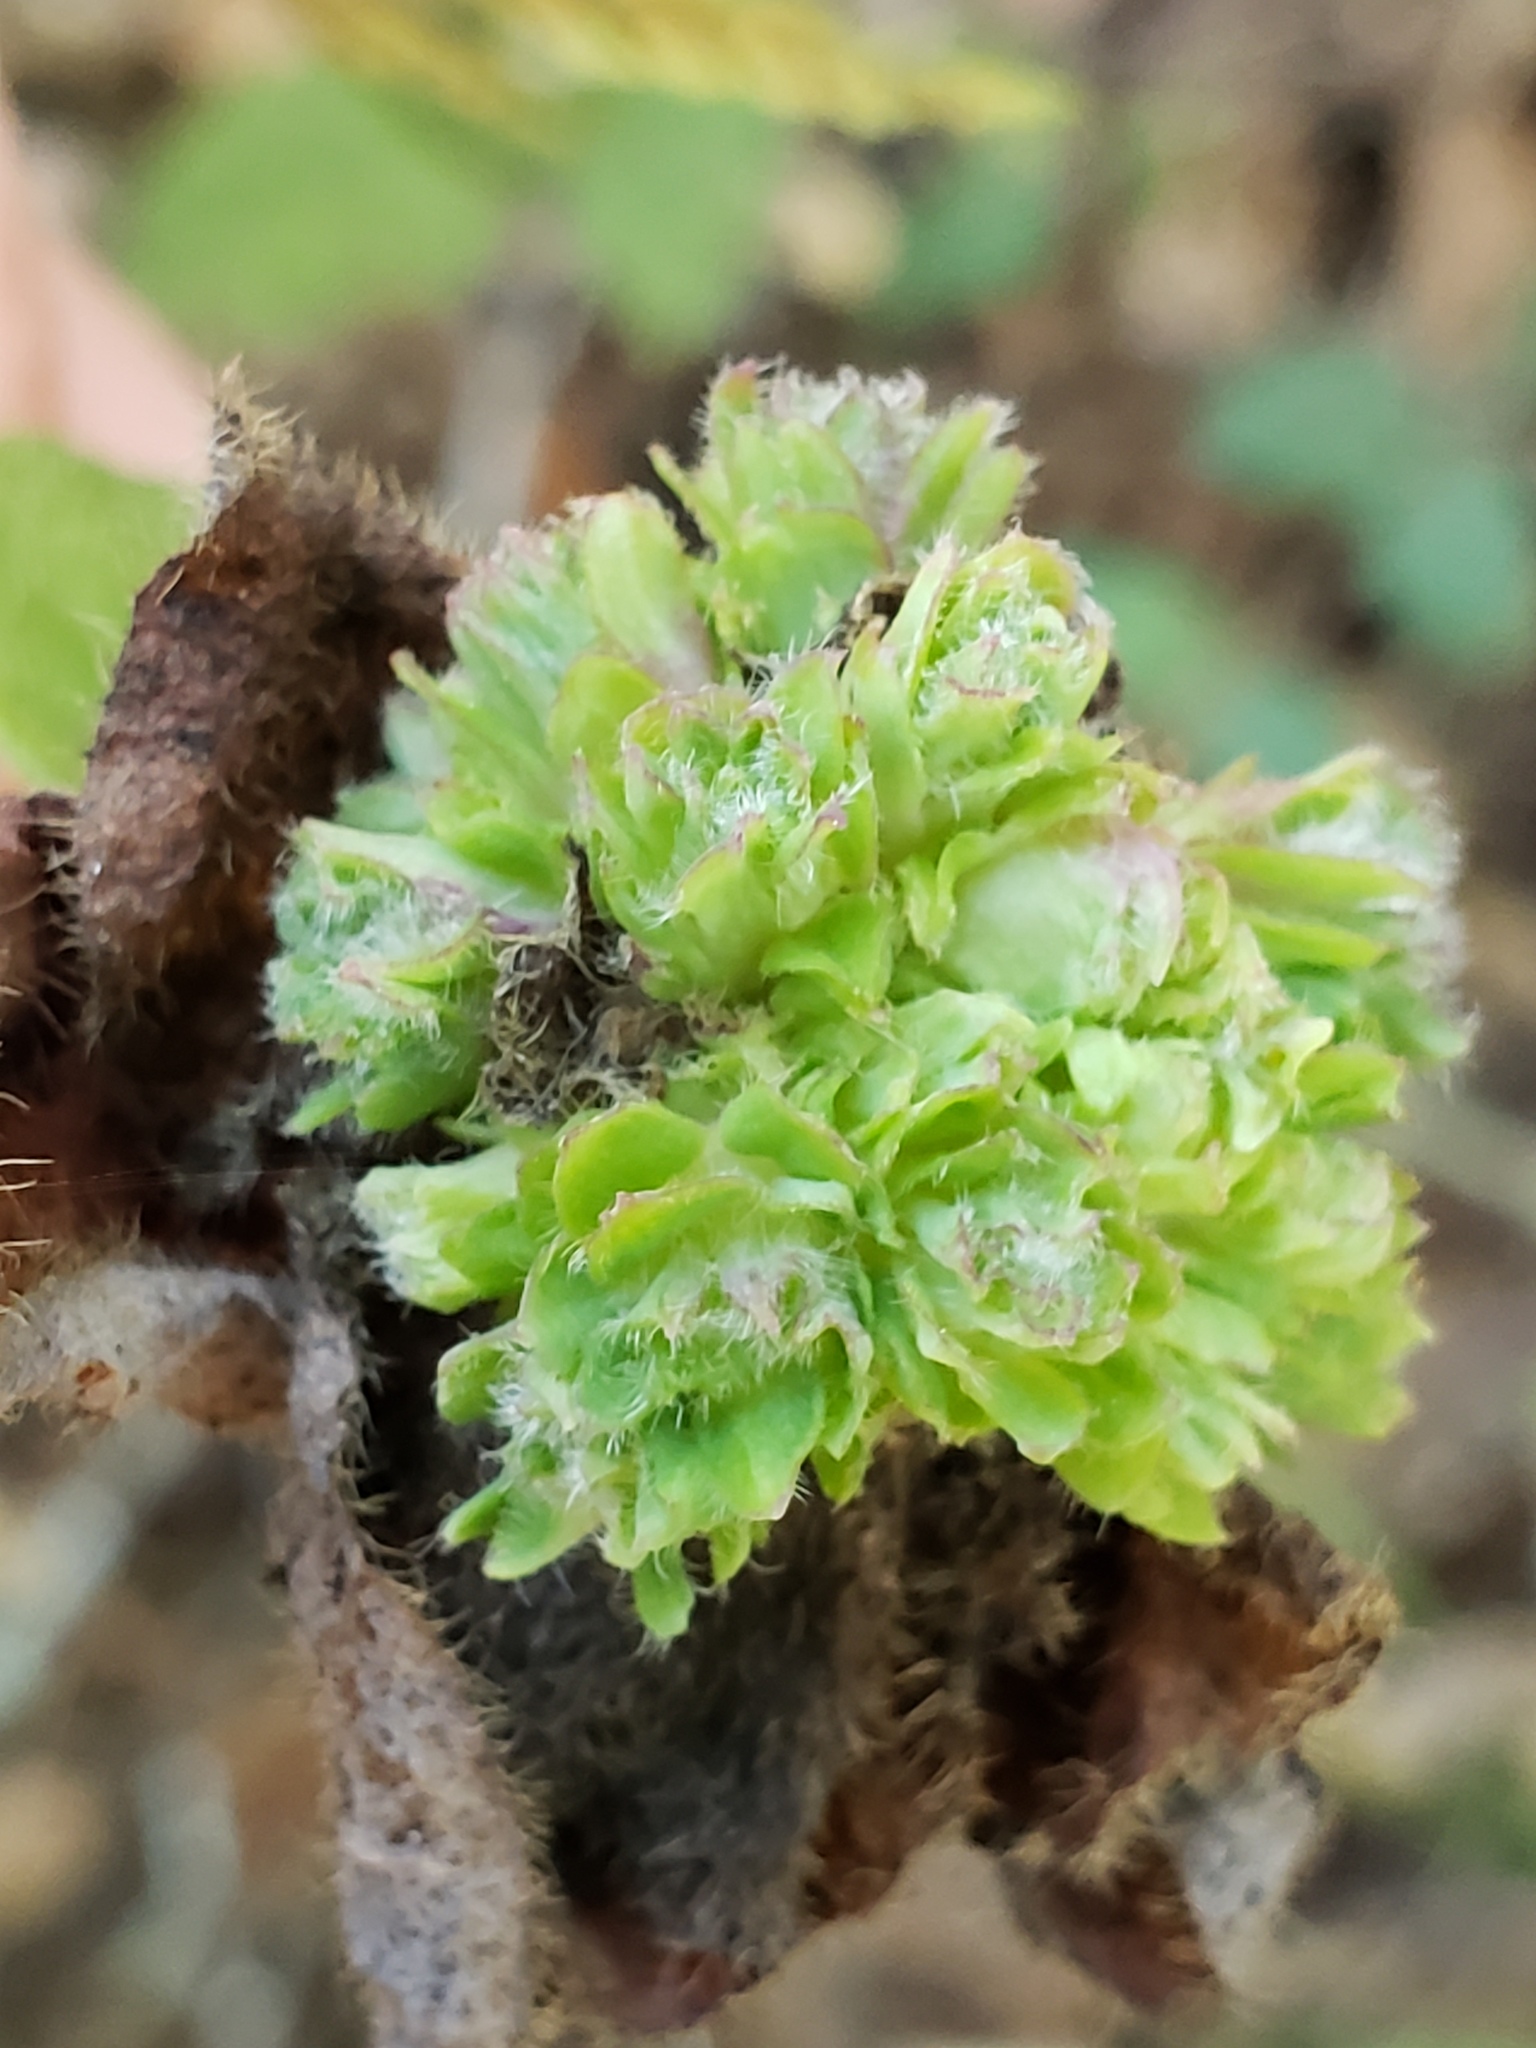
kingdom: Animalia
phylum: Arthropoda
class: Insecta
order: Diptera
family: Cecidomyiidae
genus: Lonicerae
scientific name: Lonicerae russoi
